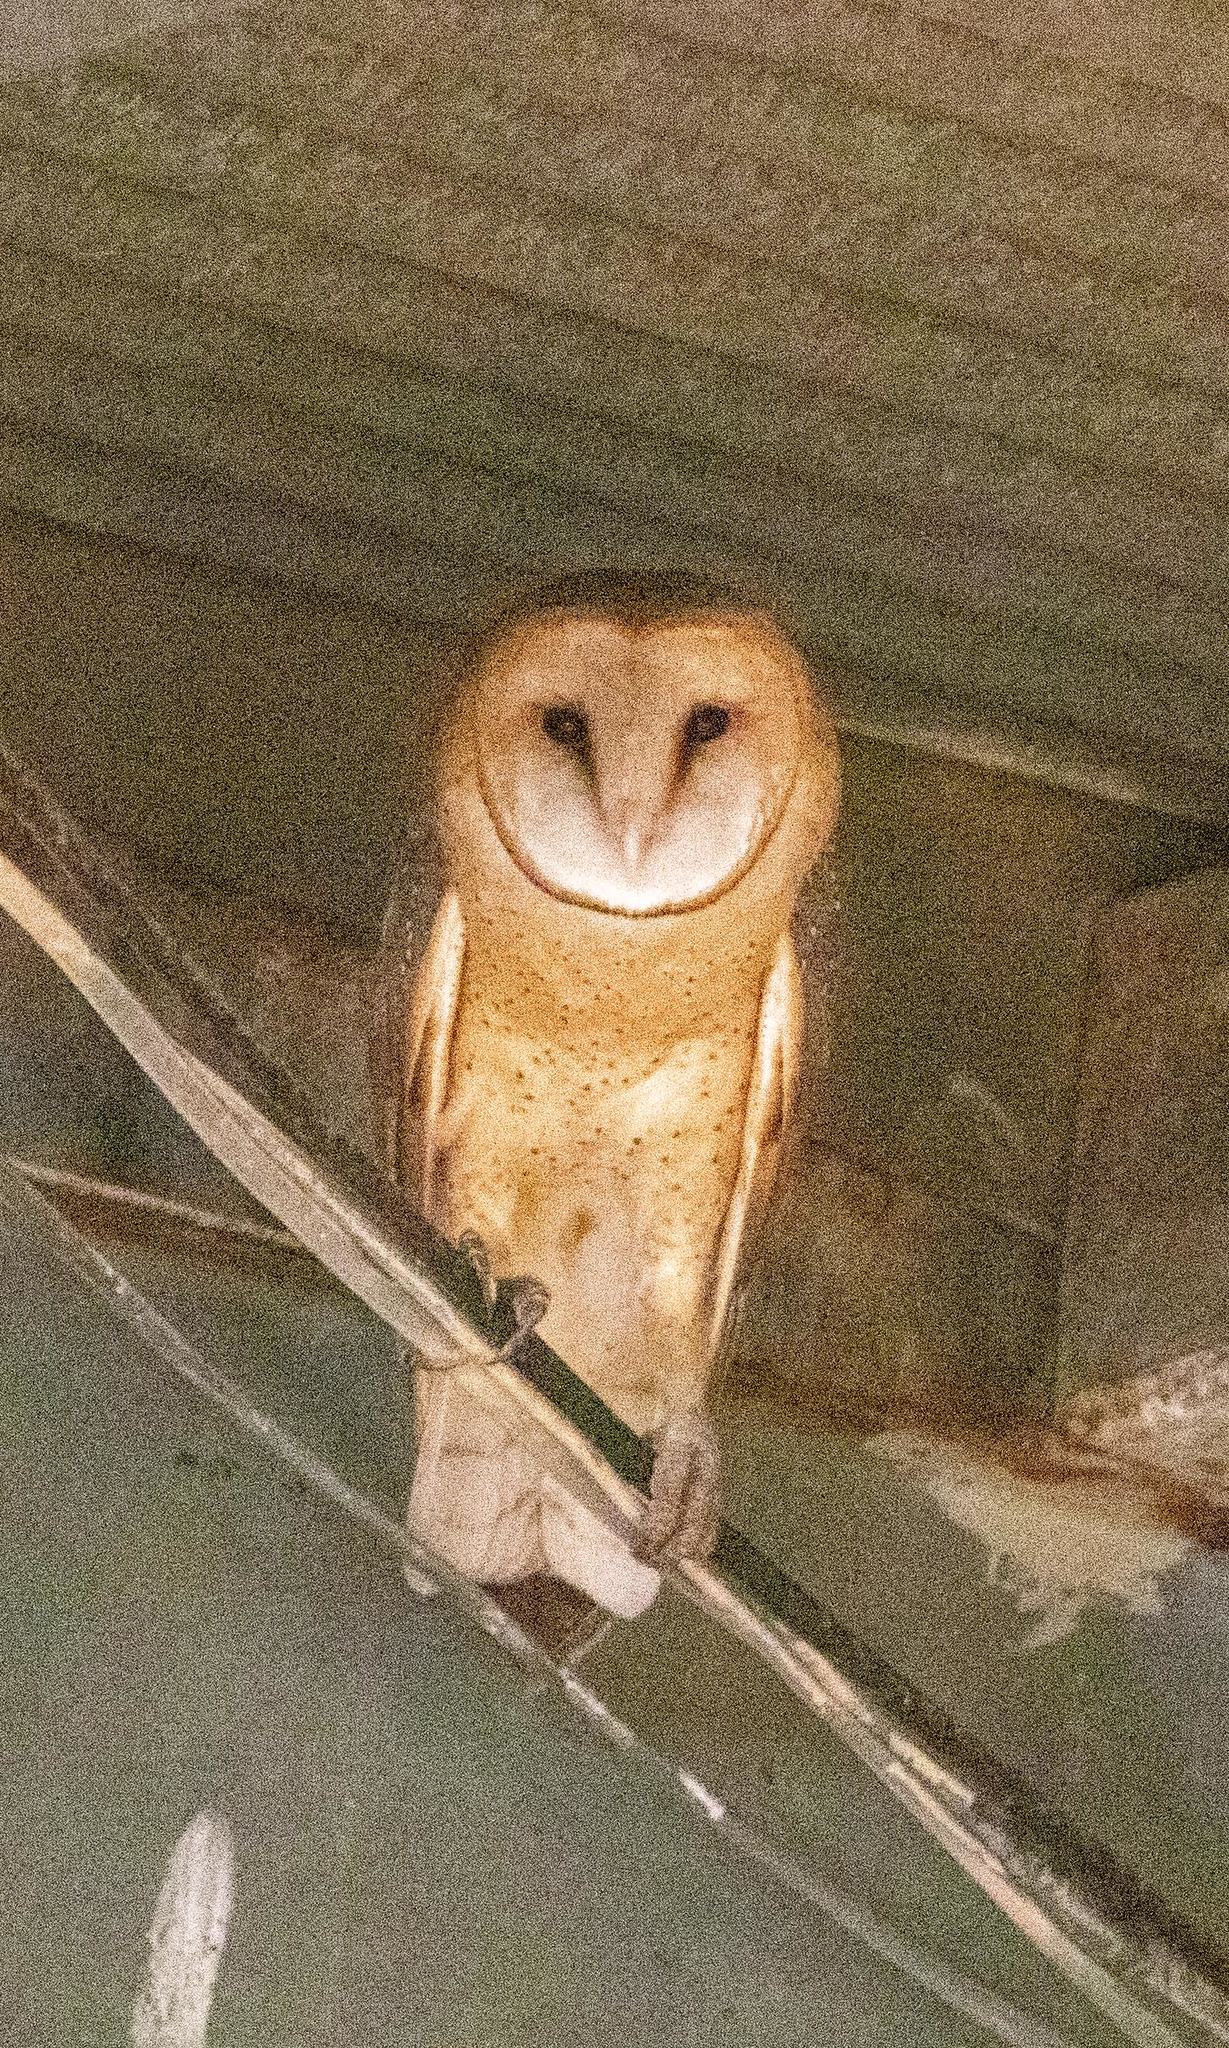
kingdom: Animalia
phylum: Chordata
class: Aves
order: Strigiformes
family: Tytonidae
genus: Tyto
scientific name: Tyto alba
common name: Barn owl
